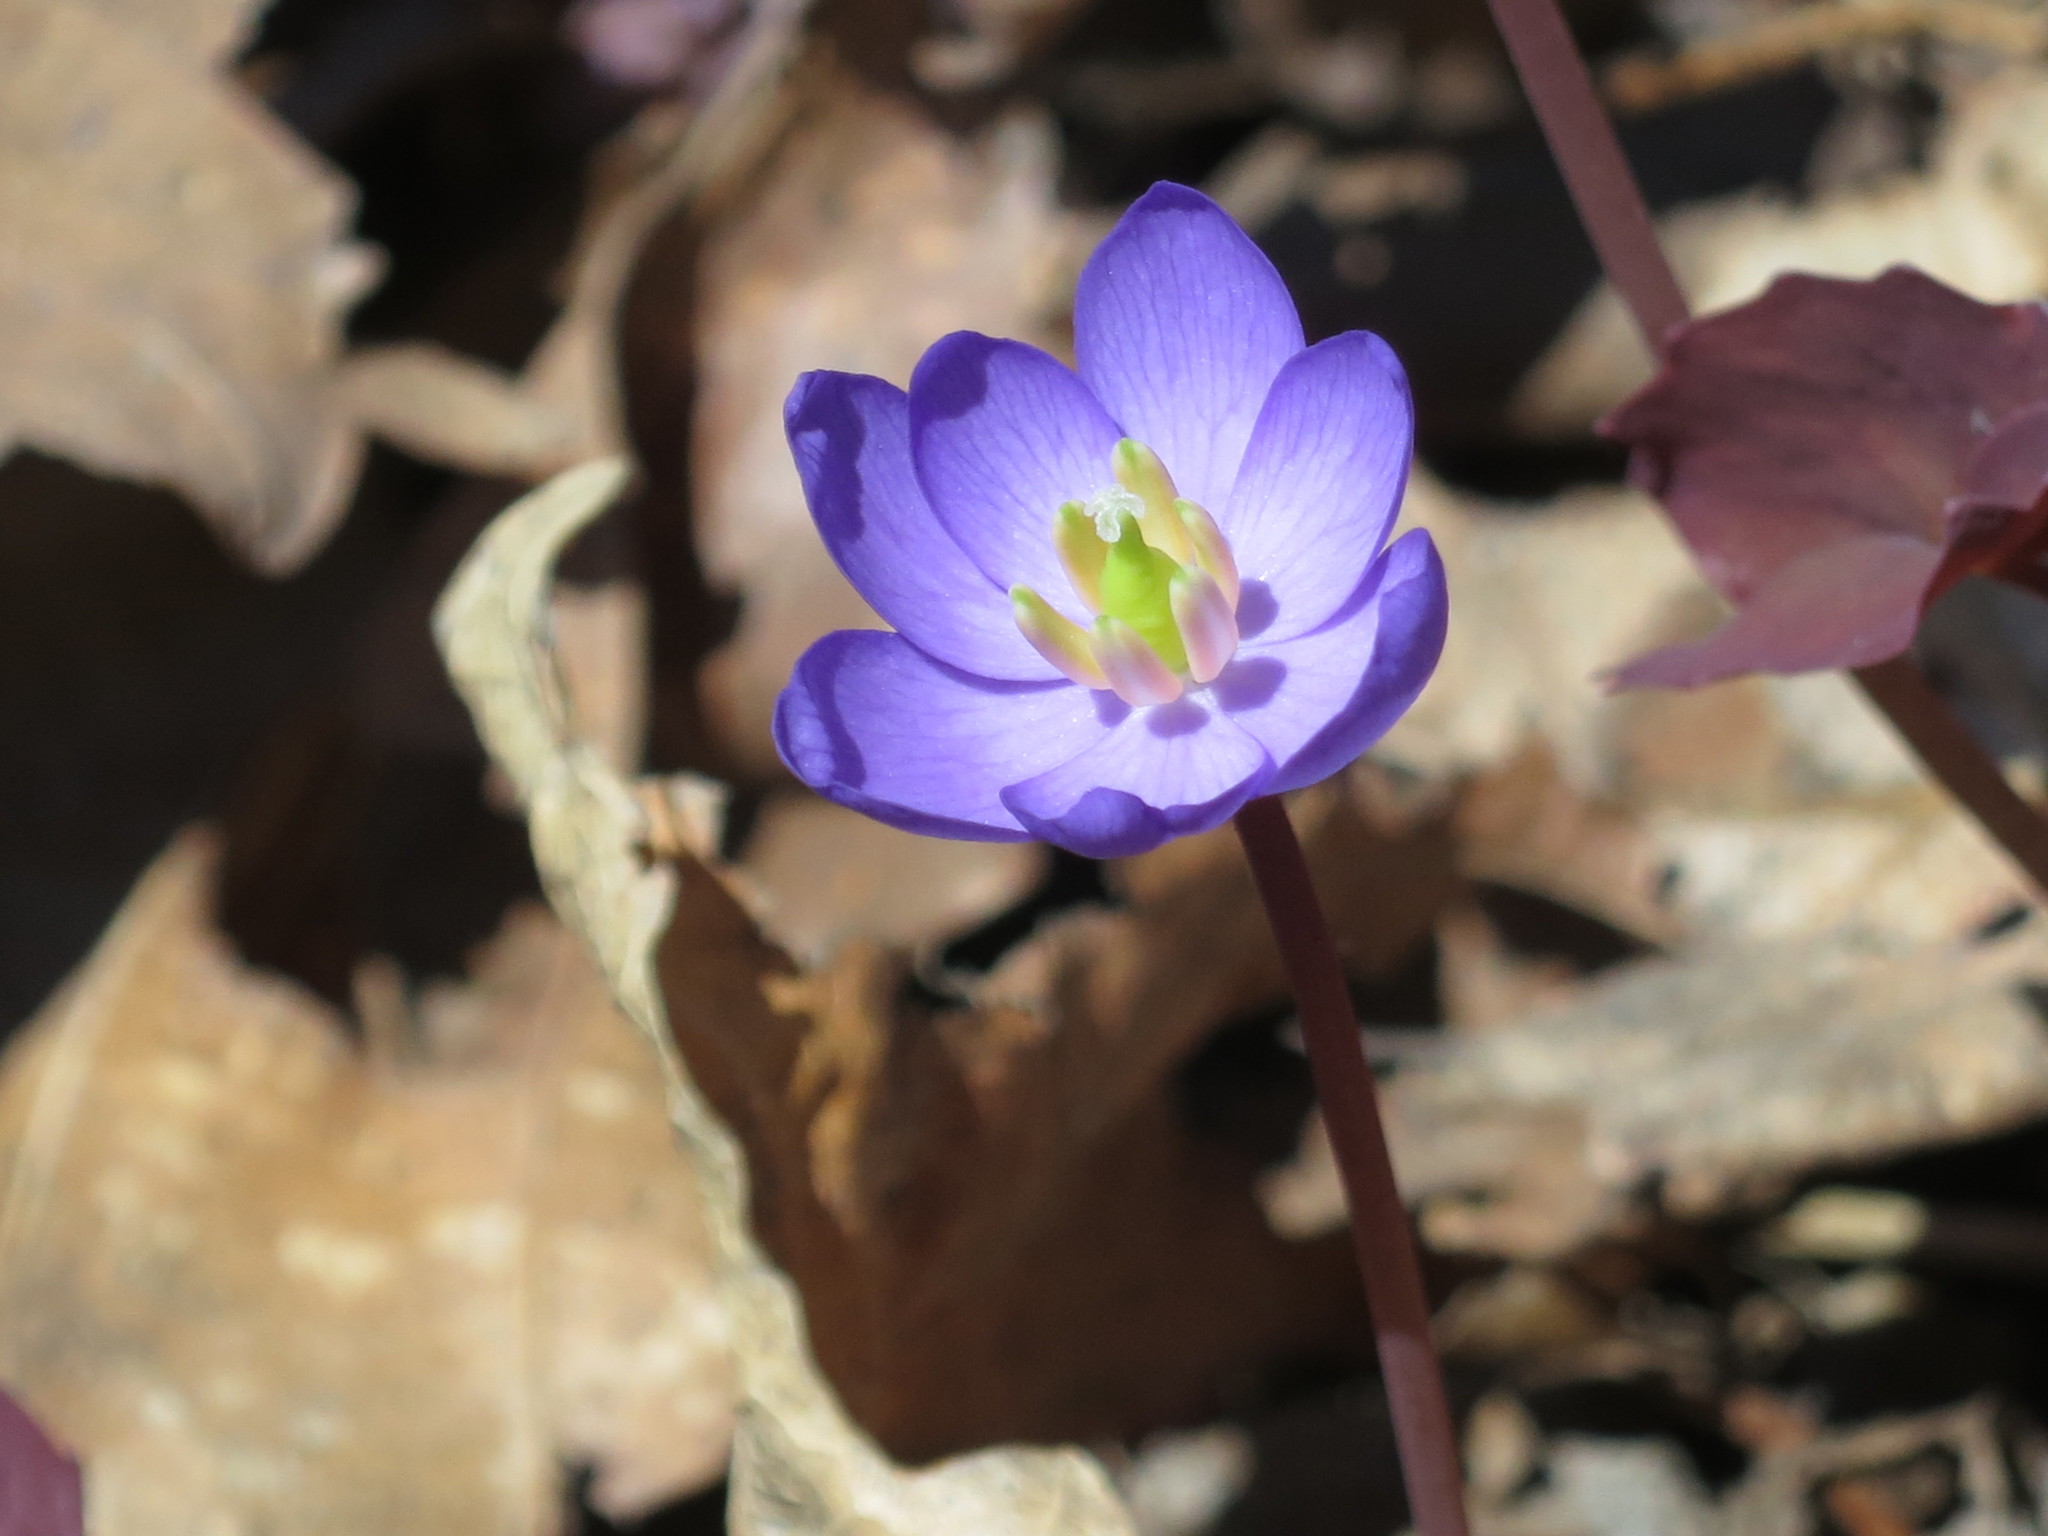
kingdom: Plantae
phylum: Tracheophyta
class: Magnoliopsida
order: Ranunculales
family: Berberidaceae
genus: Plagiorhegma
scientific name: Plagiorhegma dubium
